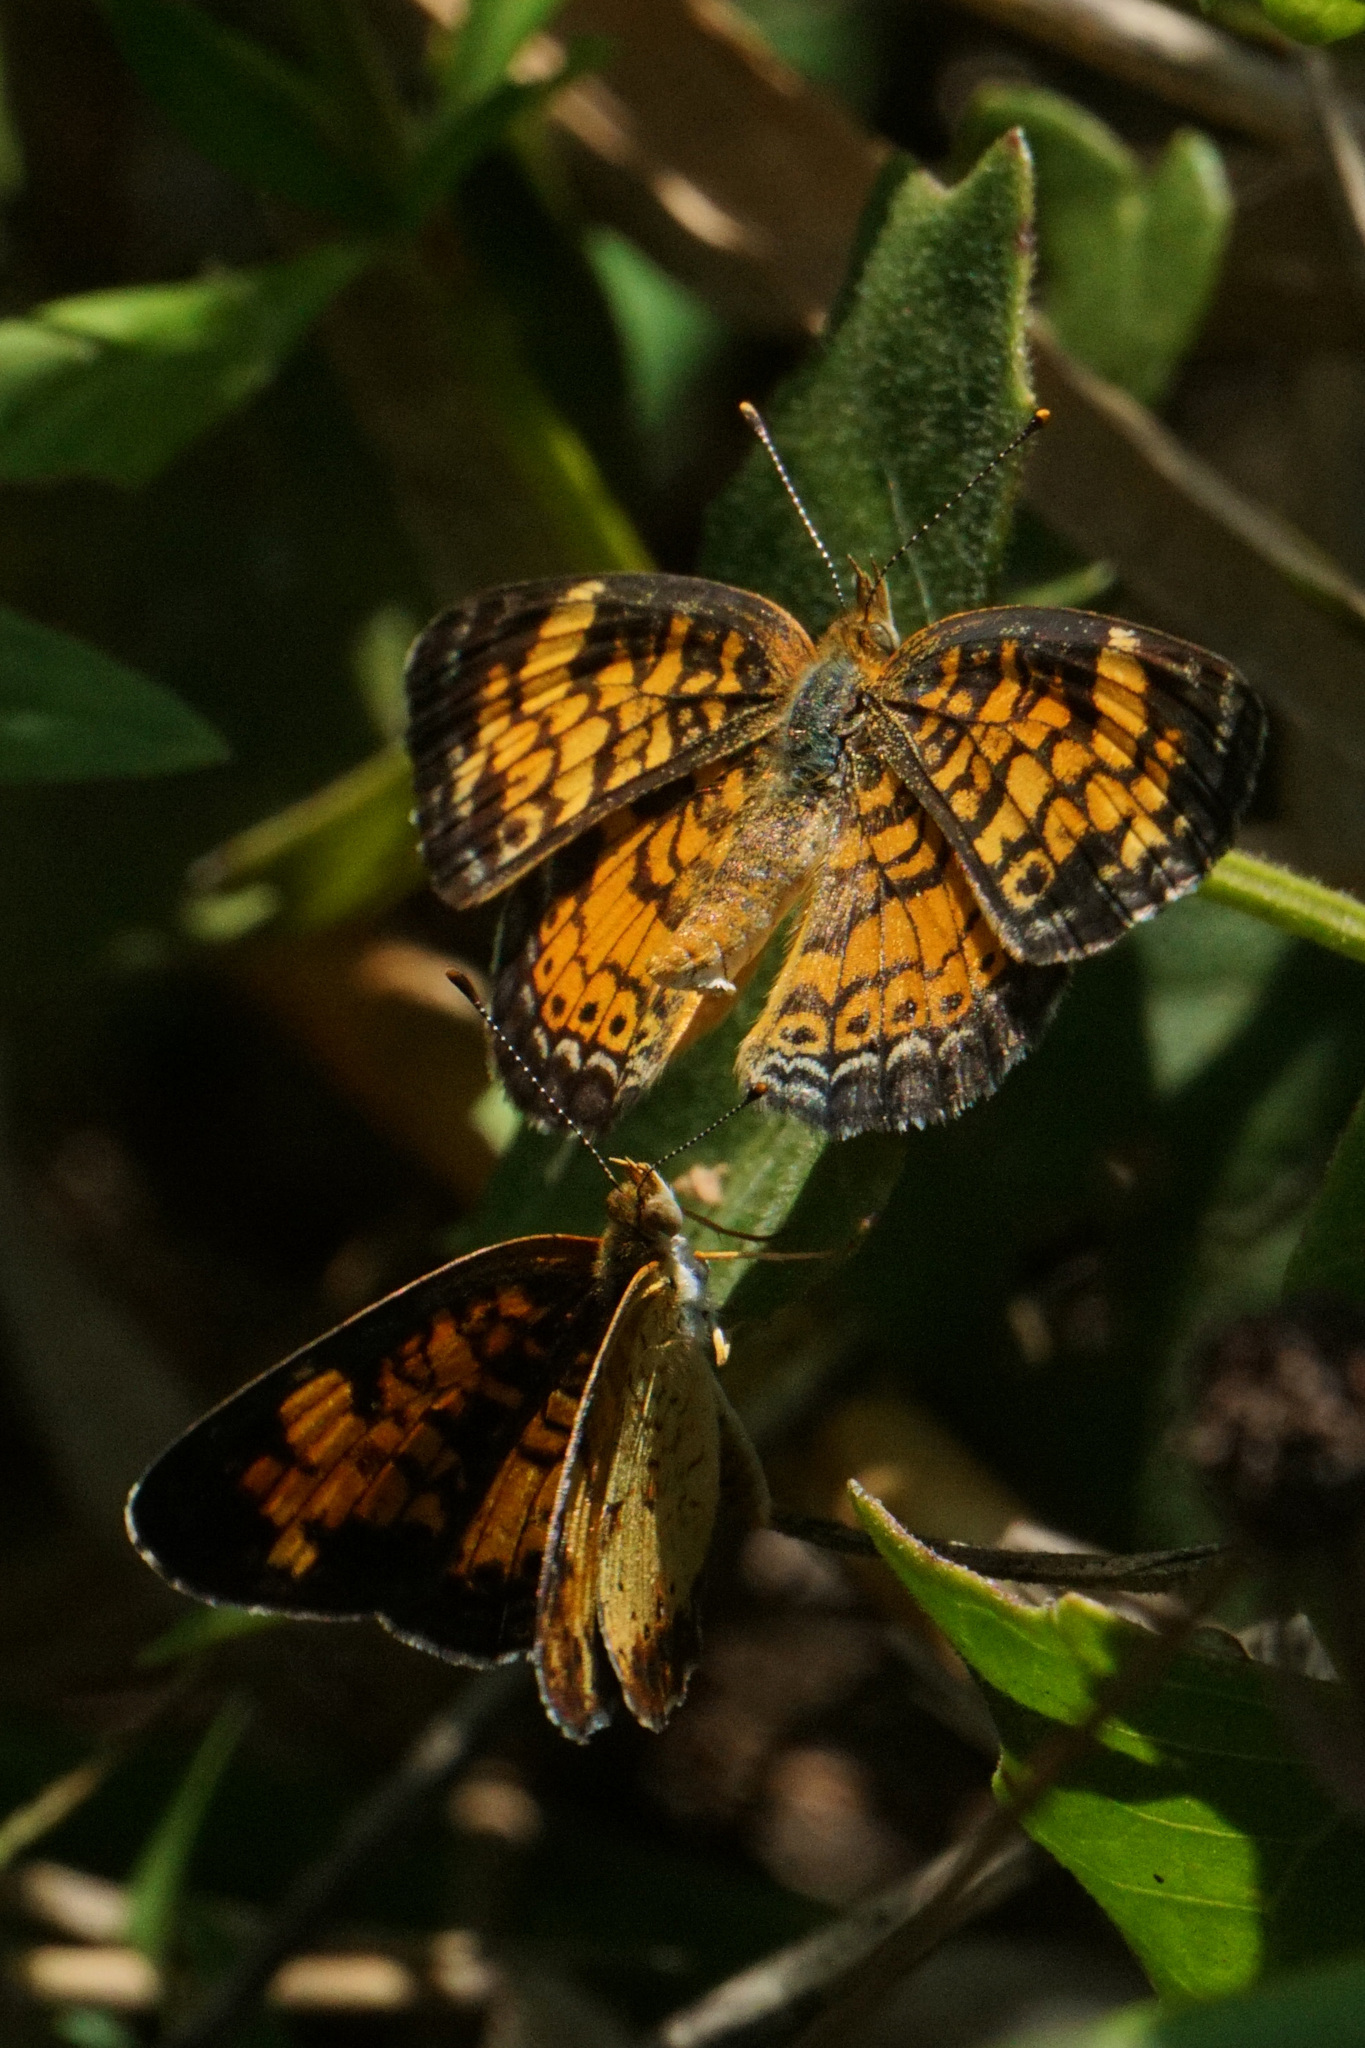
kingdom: Animalia
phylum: Arthropoda
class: Insecta
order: Lepidoptera
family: Nymphalidae
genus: Phyciodes
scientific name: Phyciodes tharos
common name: Pearl crescent
